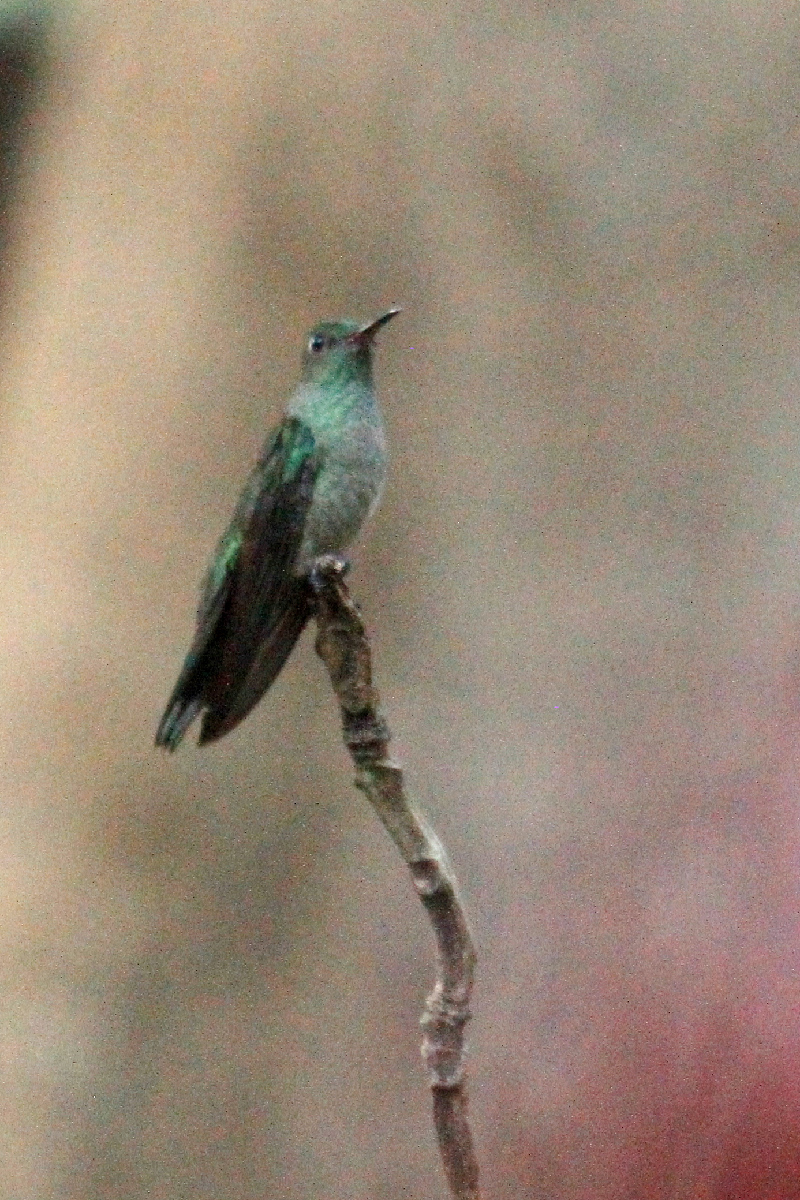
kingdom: Animalia
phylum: Chordata
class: Aves
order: Apodiformes
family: Trochilidae
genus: Phaeochroa
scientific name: Phaeochroa cuvierii
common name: Scaly-breasted hummingbird
